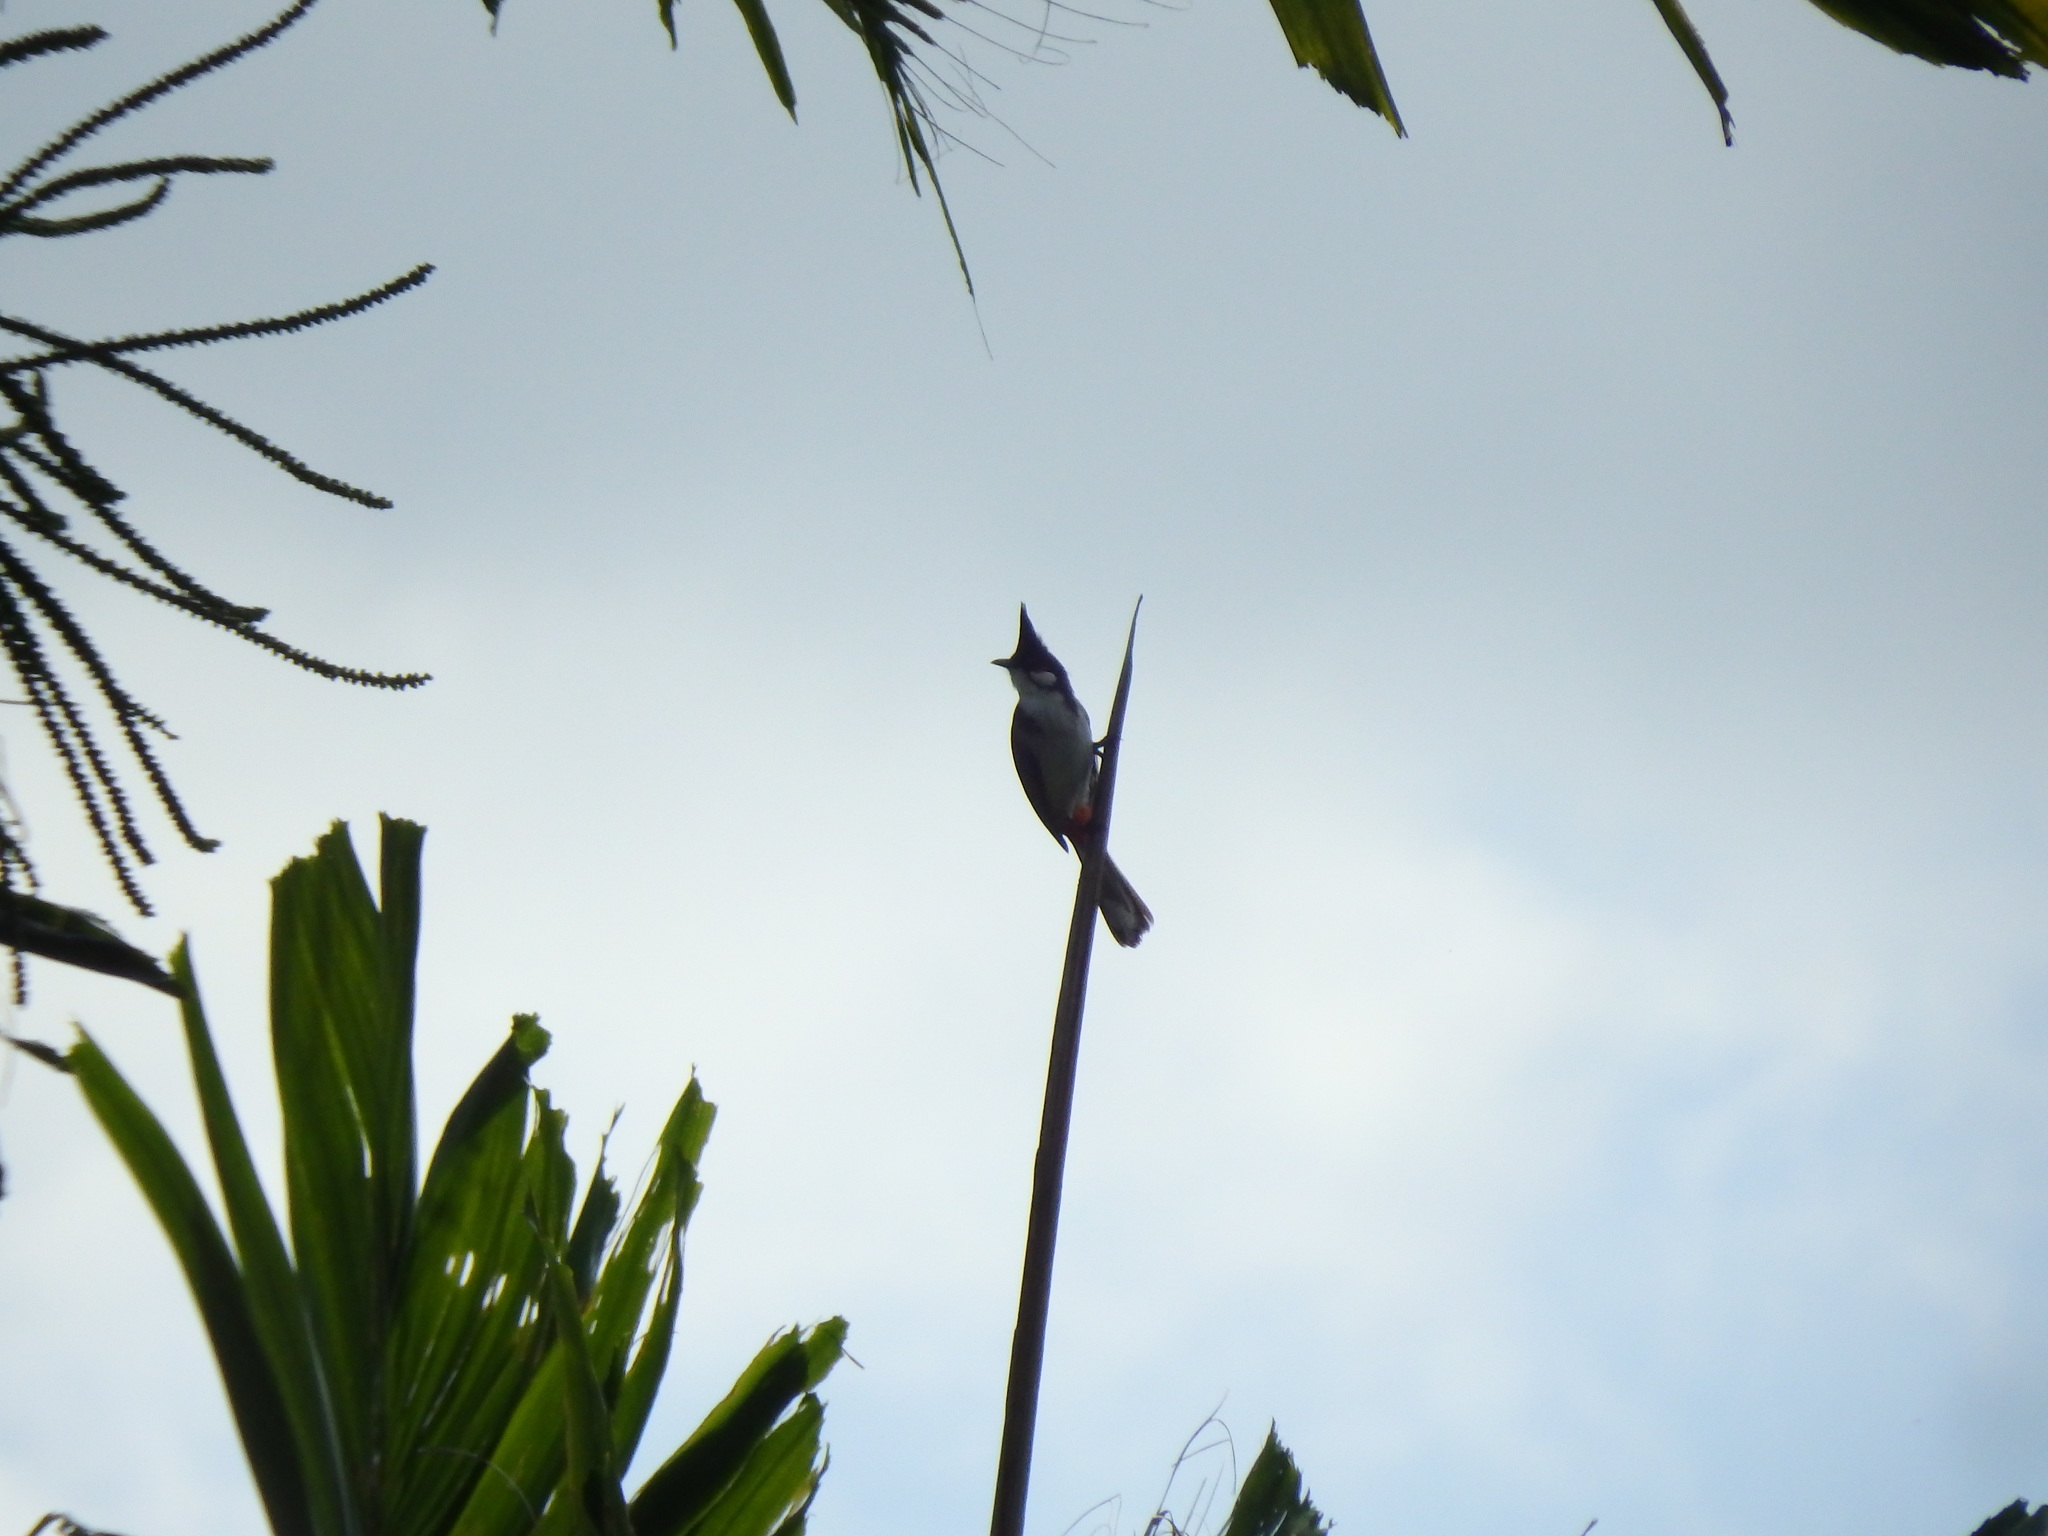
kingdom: Animalia
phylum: Chordata
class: Aves
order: Passeriformes
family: Pycnonotidae
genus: Pycnonotus
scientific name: Pycnonotus jocosus
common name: Red-whiskered bulbul
